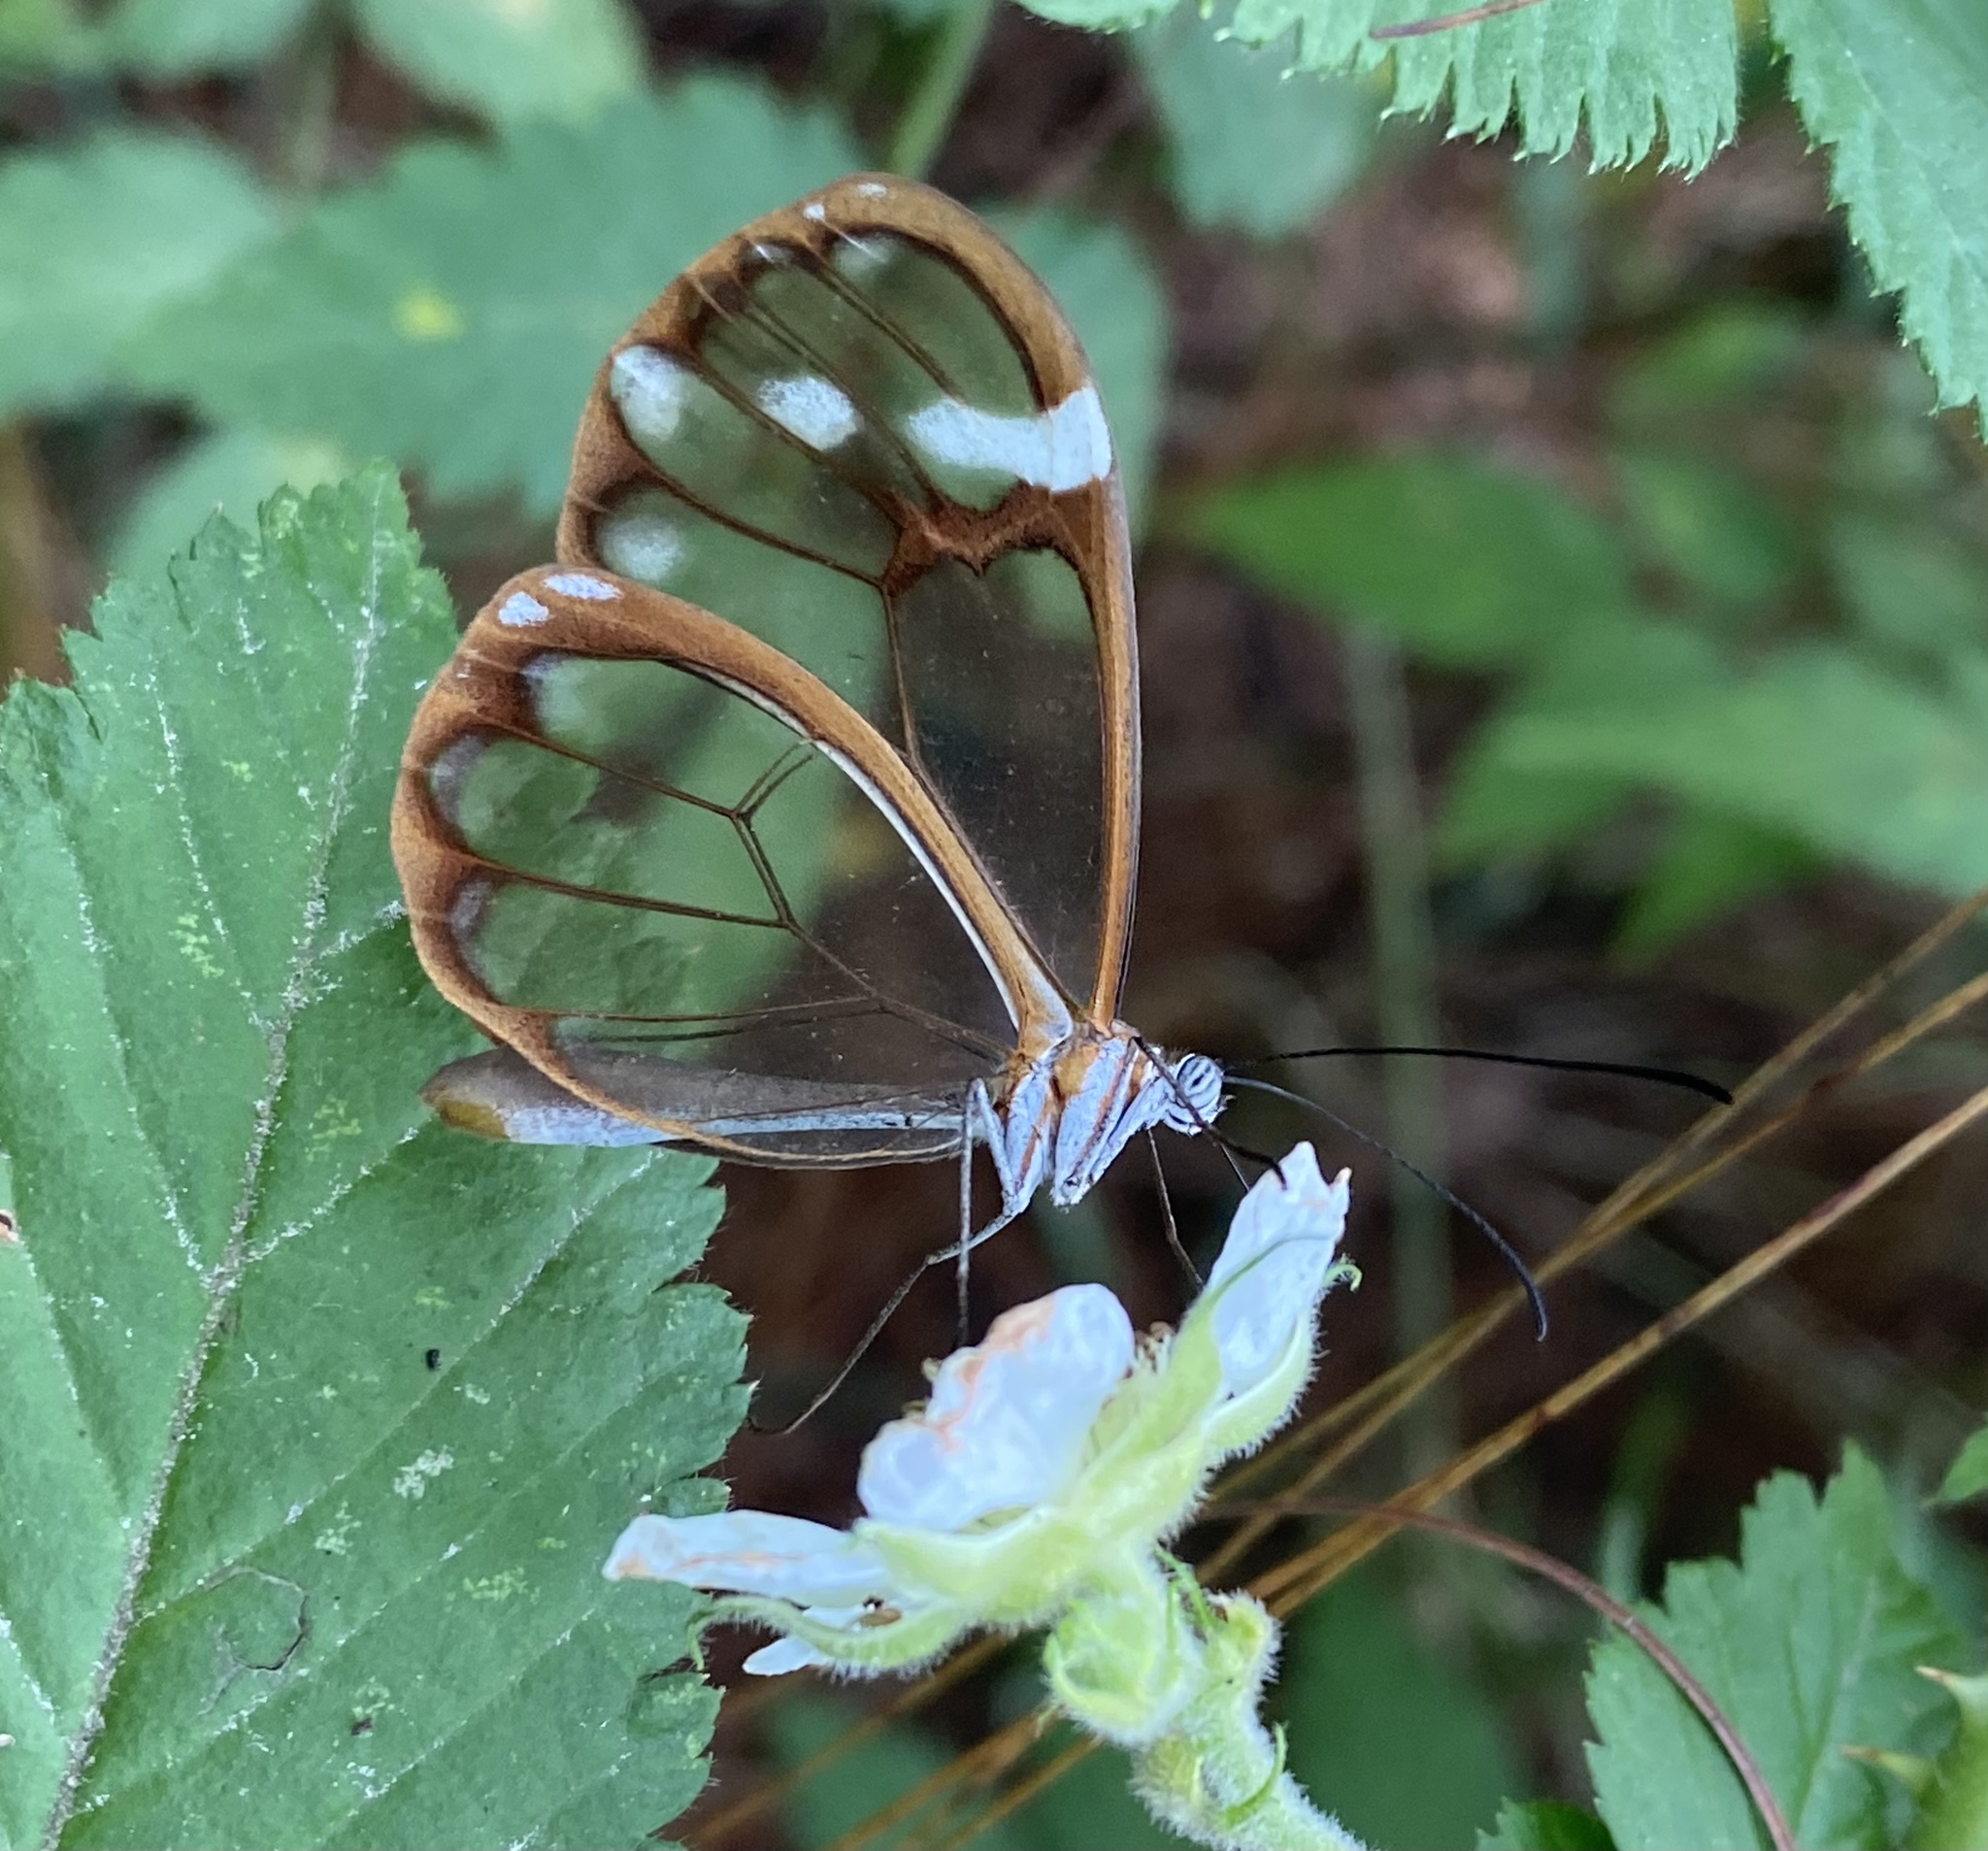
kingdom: Animalia
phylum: Arthropoda
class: Insecta
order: Lepidoptera
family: Nymphalidae
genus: Greta
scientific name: Greta annette
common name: White-spotted clearwing
